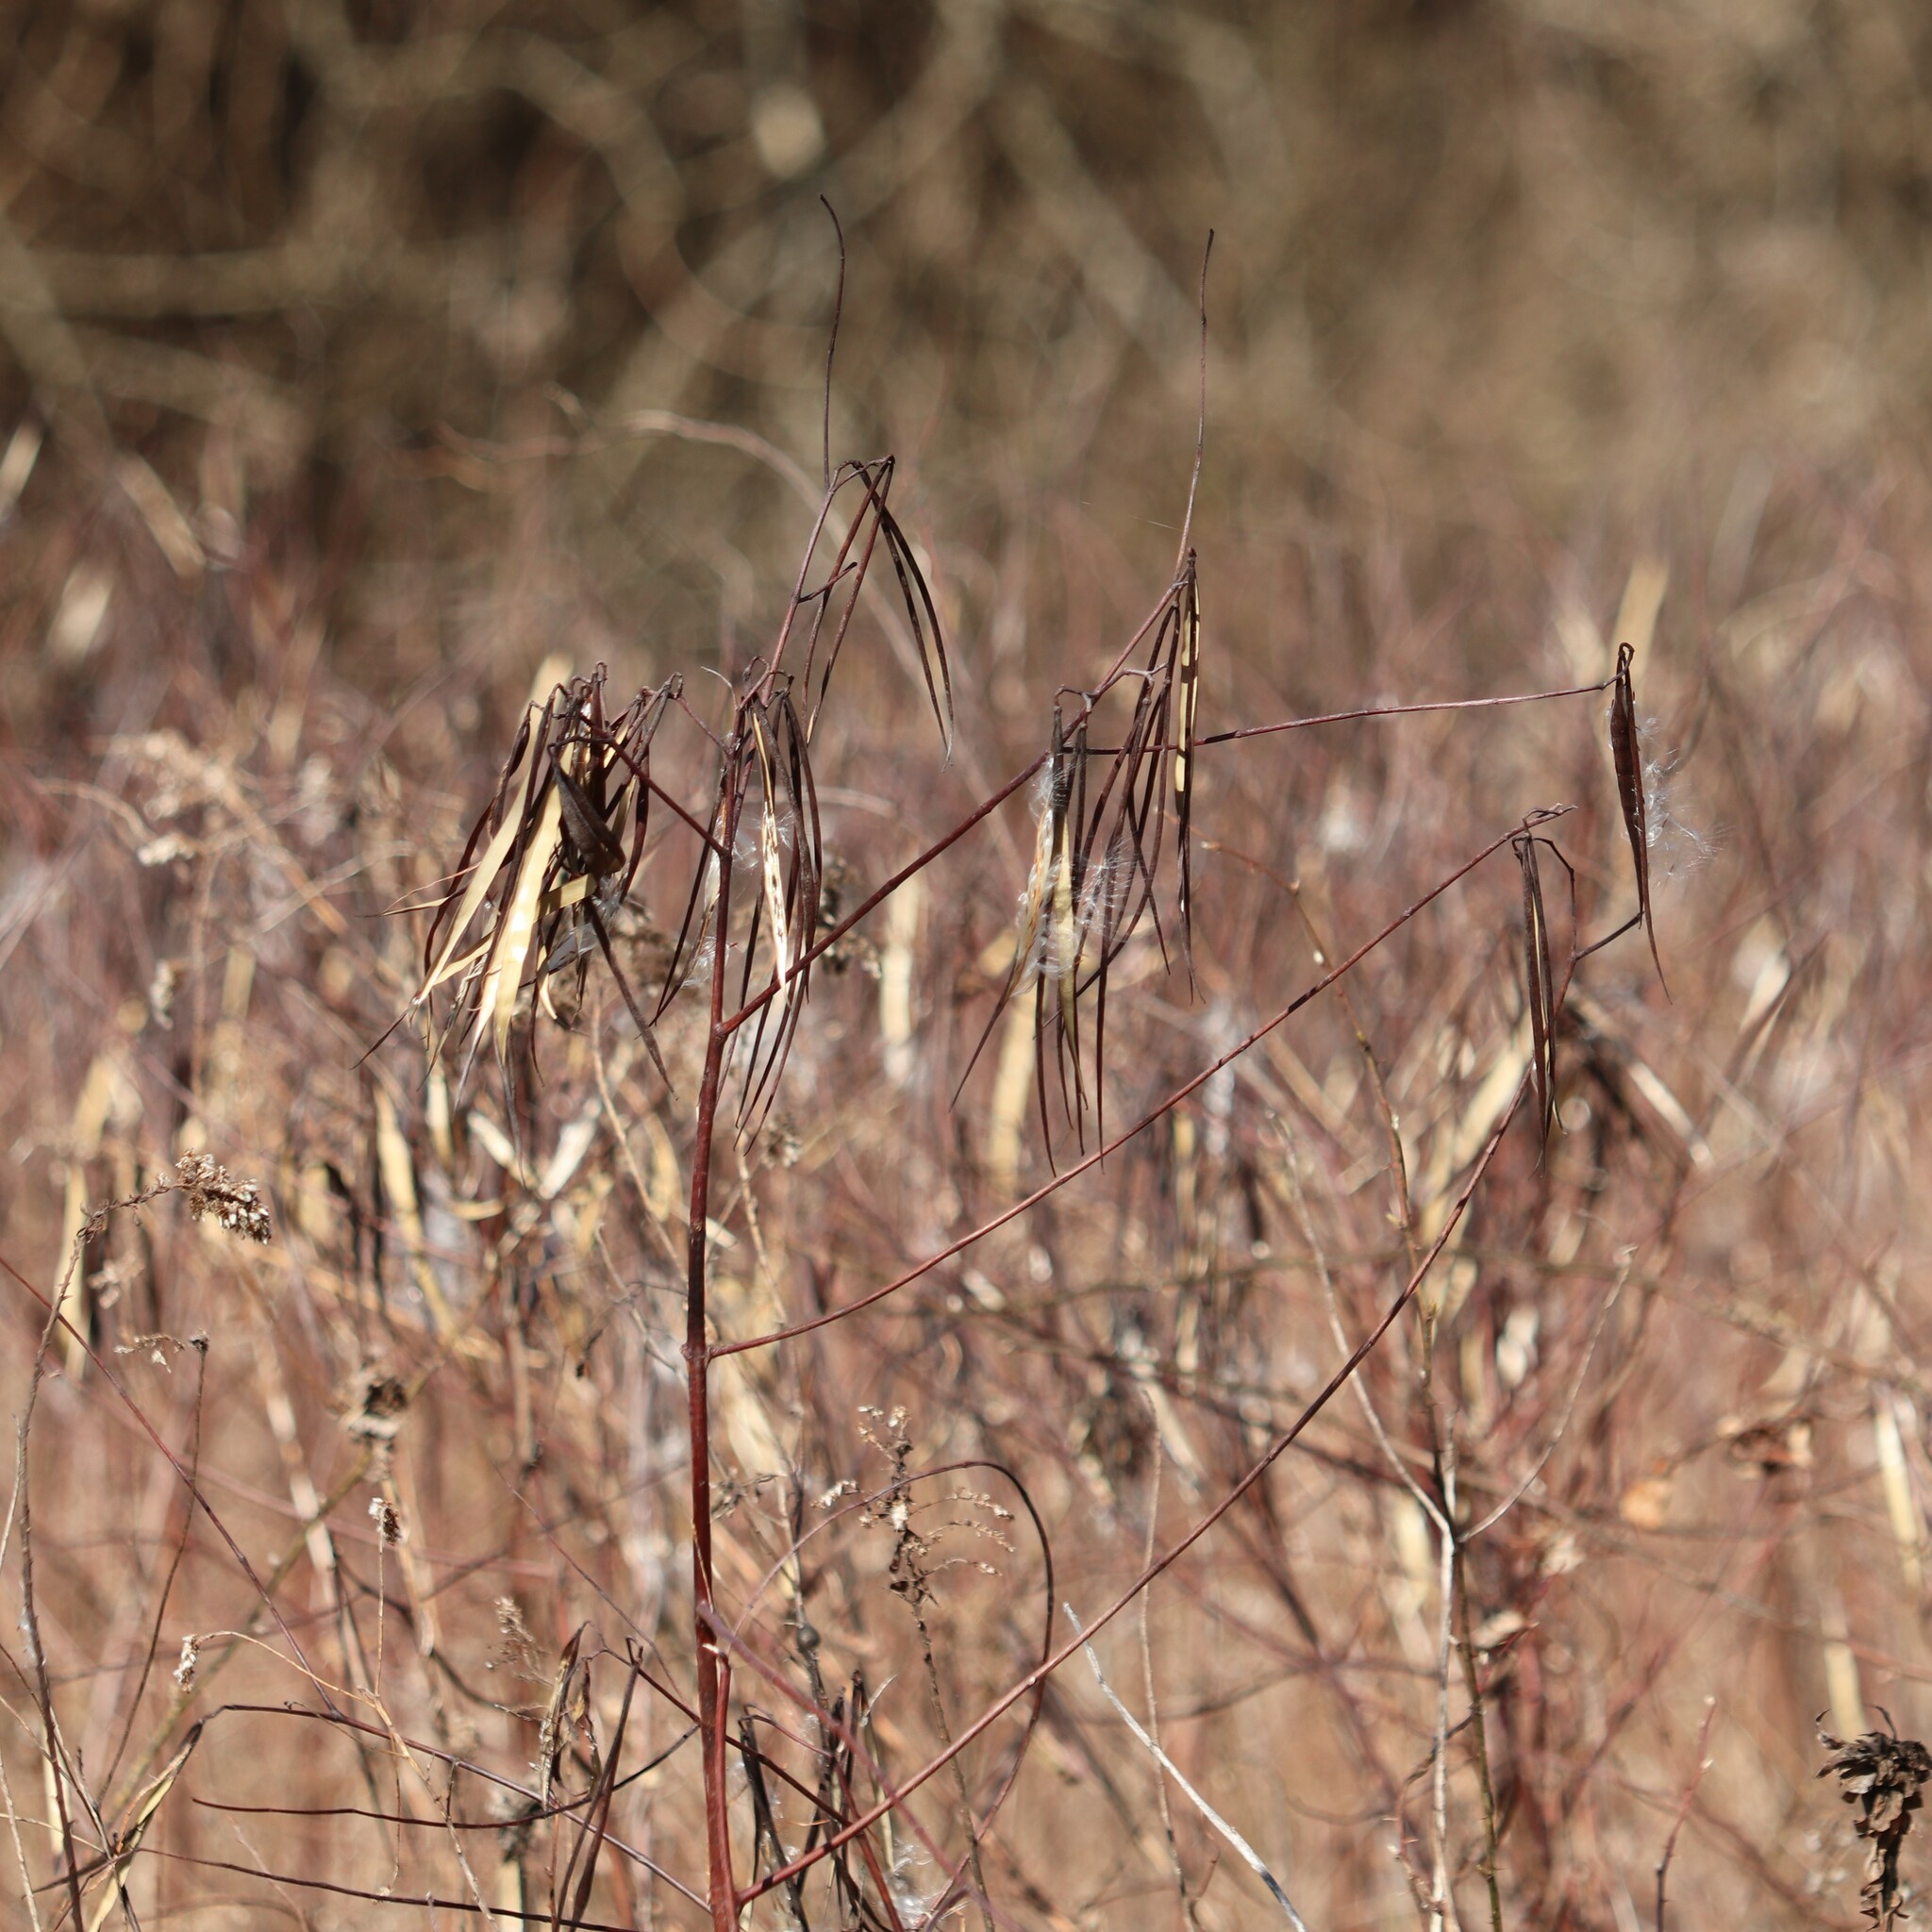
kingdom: Plantae
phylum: Tracheophyta
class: Magnoliopsida
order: Gentianales
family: Apocynaceae
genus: Apocynum
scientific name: Apocynum cannabinum
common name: Hemp dogbane
